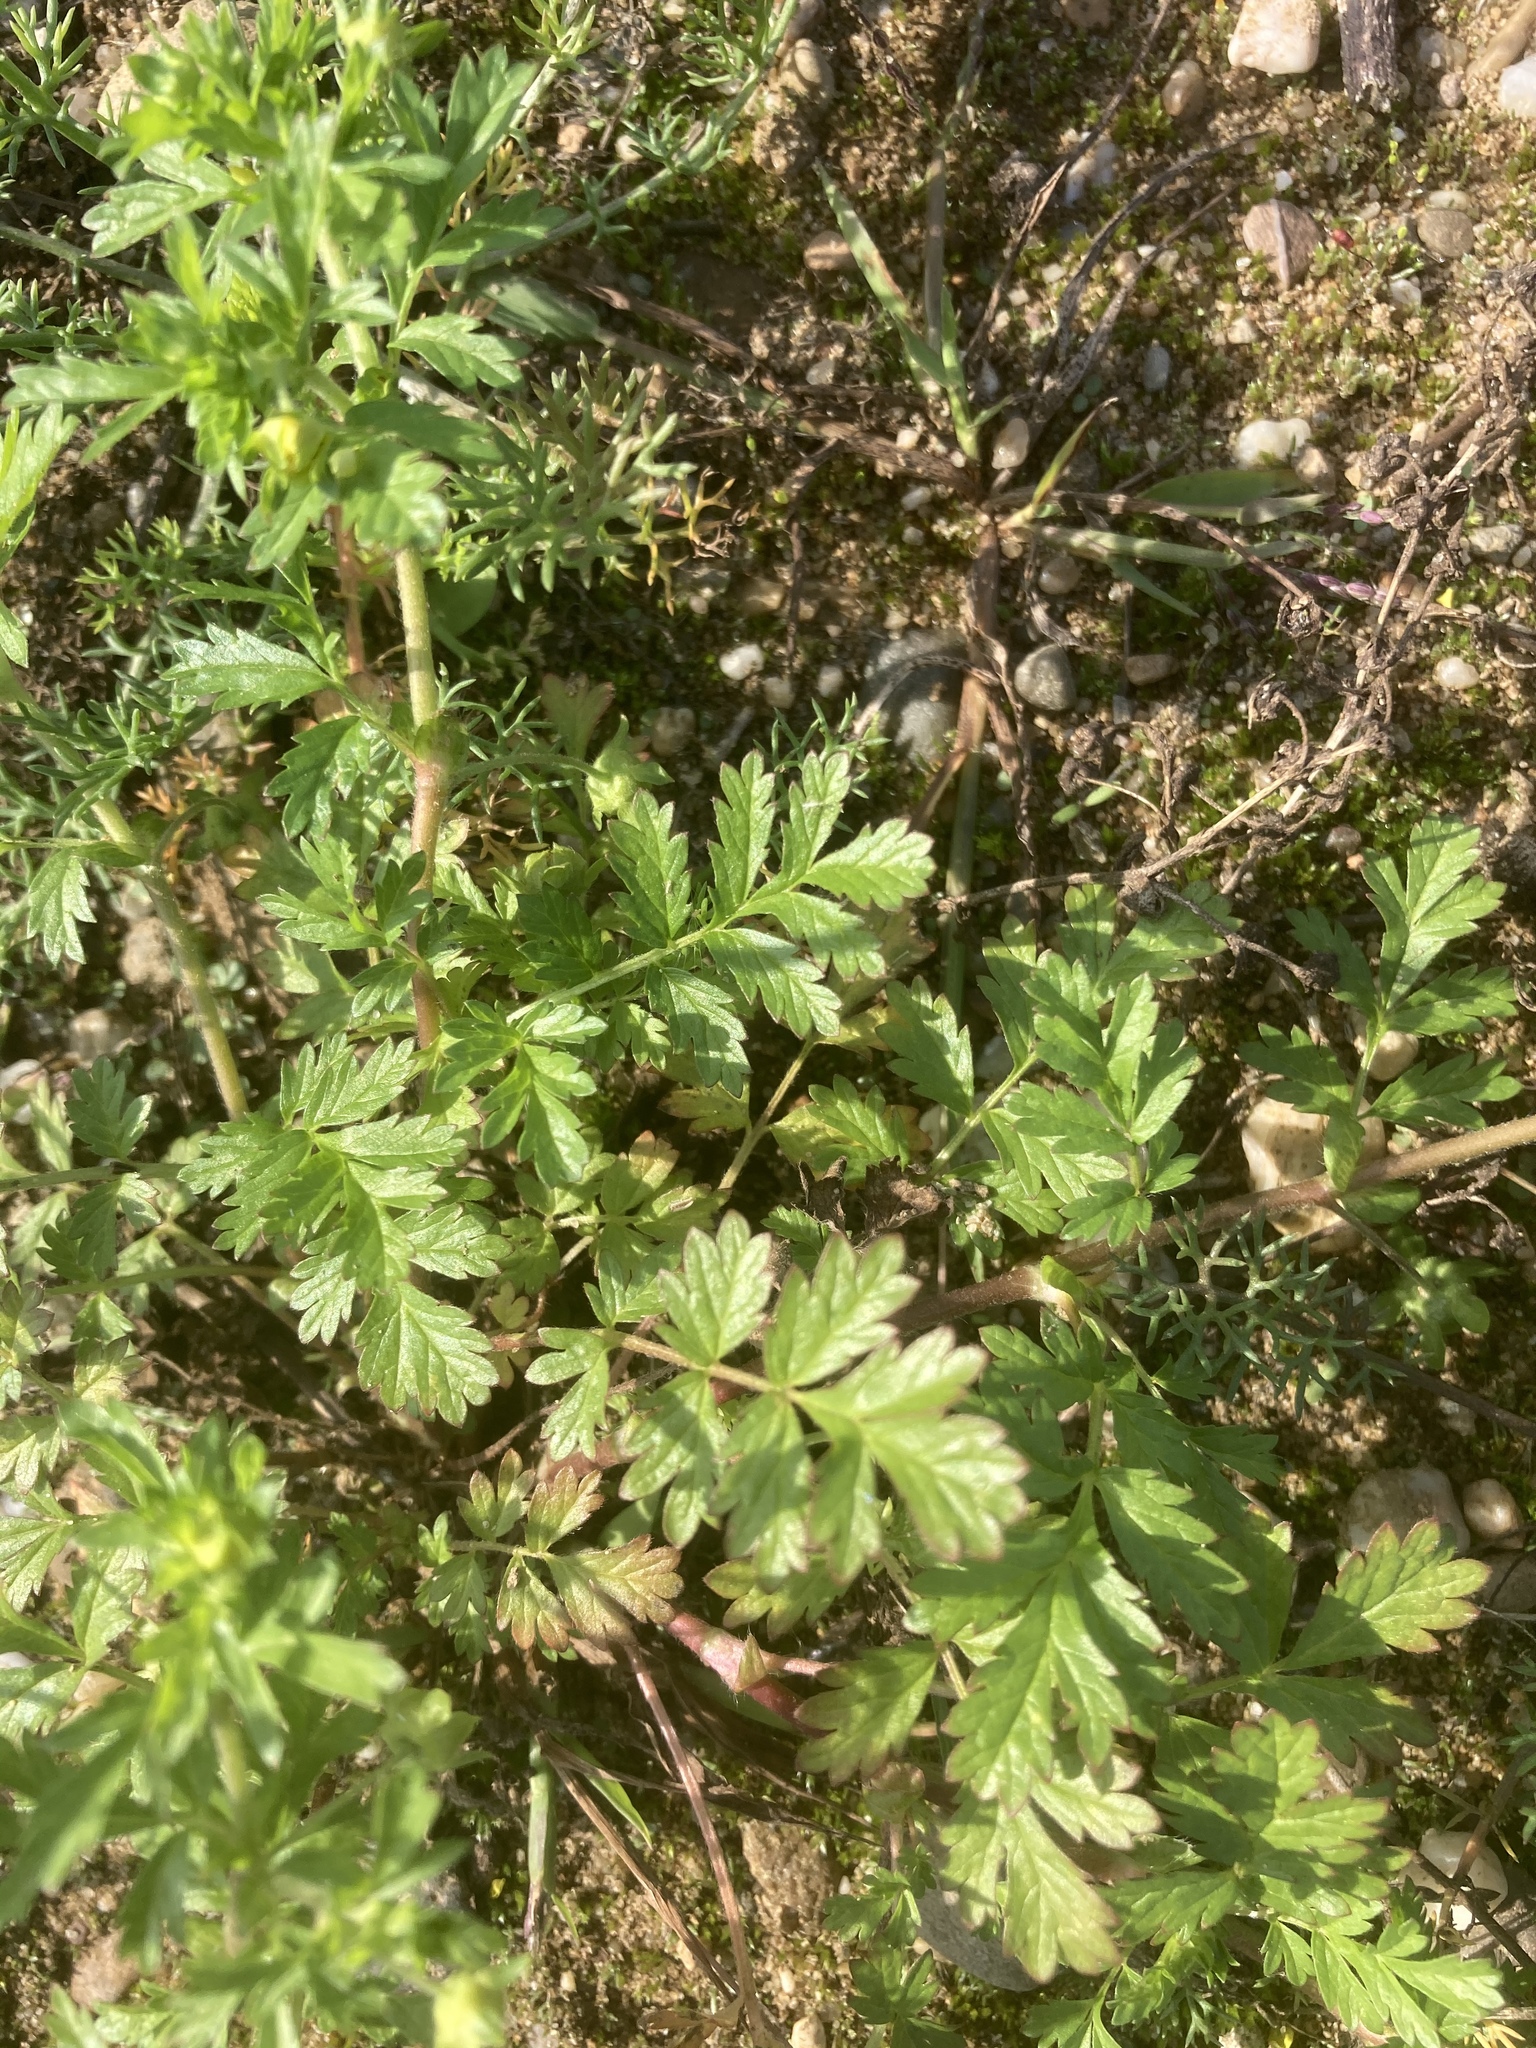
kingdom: Plantae
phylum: Tracheophyta
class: Magnoliopsida
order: Rosales
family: Rosaceae
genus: Potentilla
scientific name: Potentilla supina
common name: Prostrate cinquefoil
